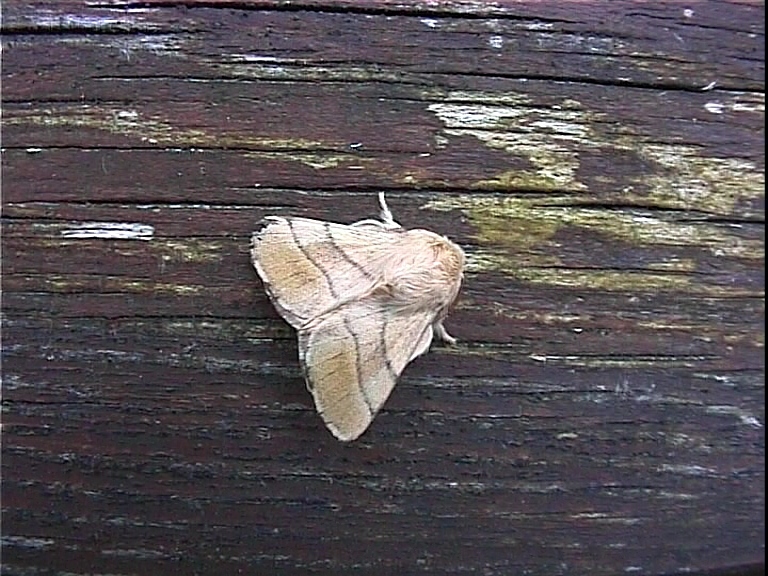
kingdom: Animalia
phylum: Arthropoda
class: Insecta
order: Lepidoptera
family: Lasiocampidae
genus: Malacosoma
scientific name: Malacosoma neustria
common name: The lackey
